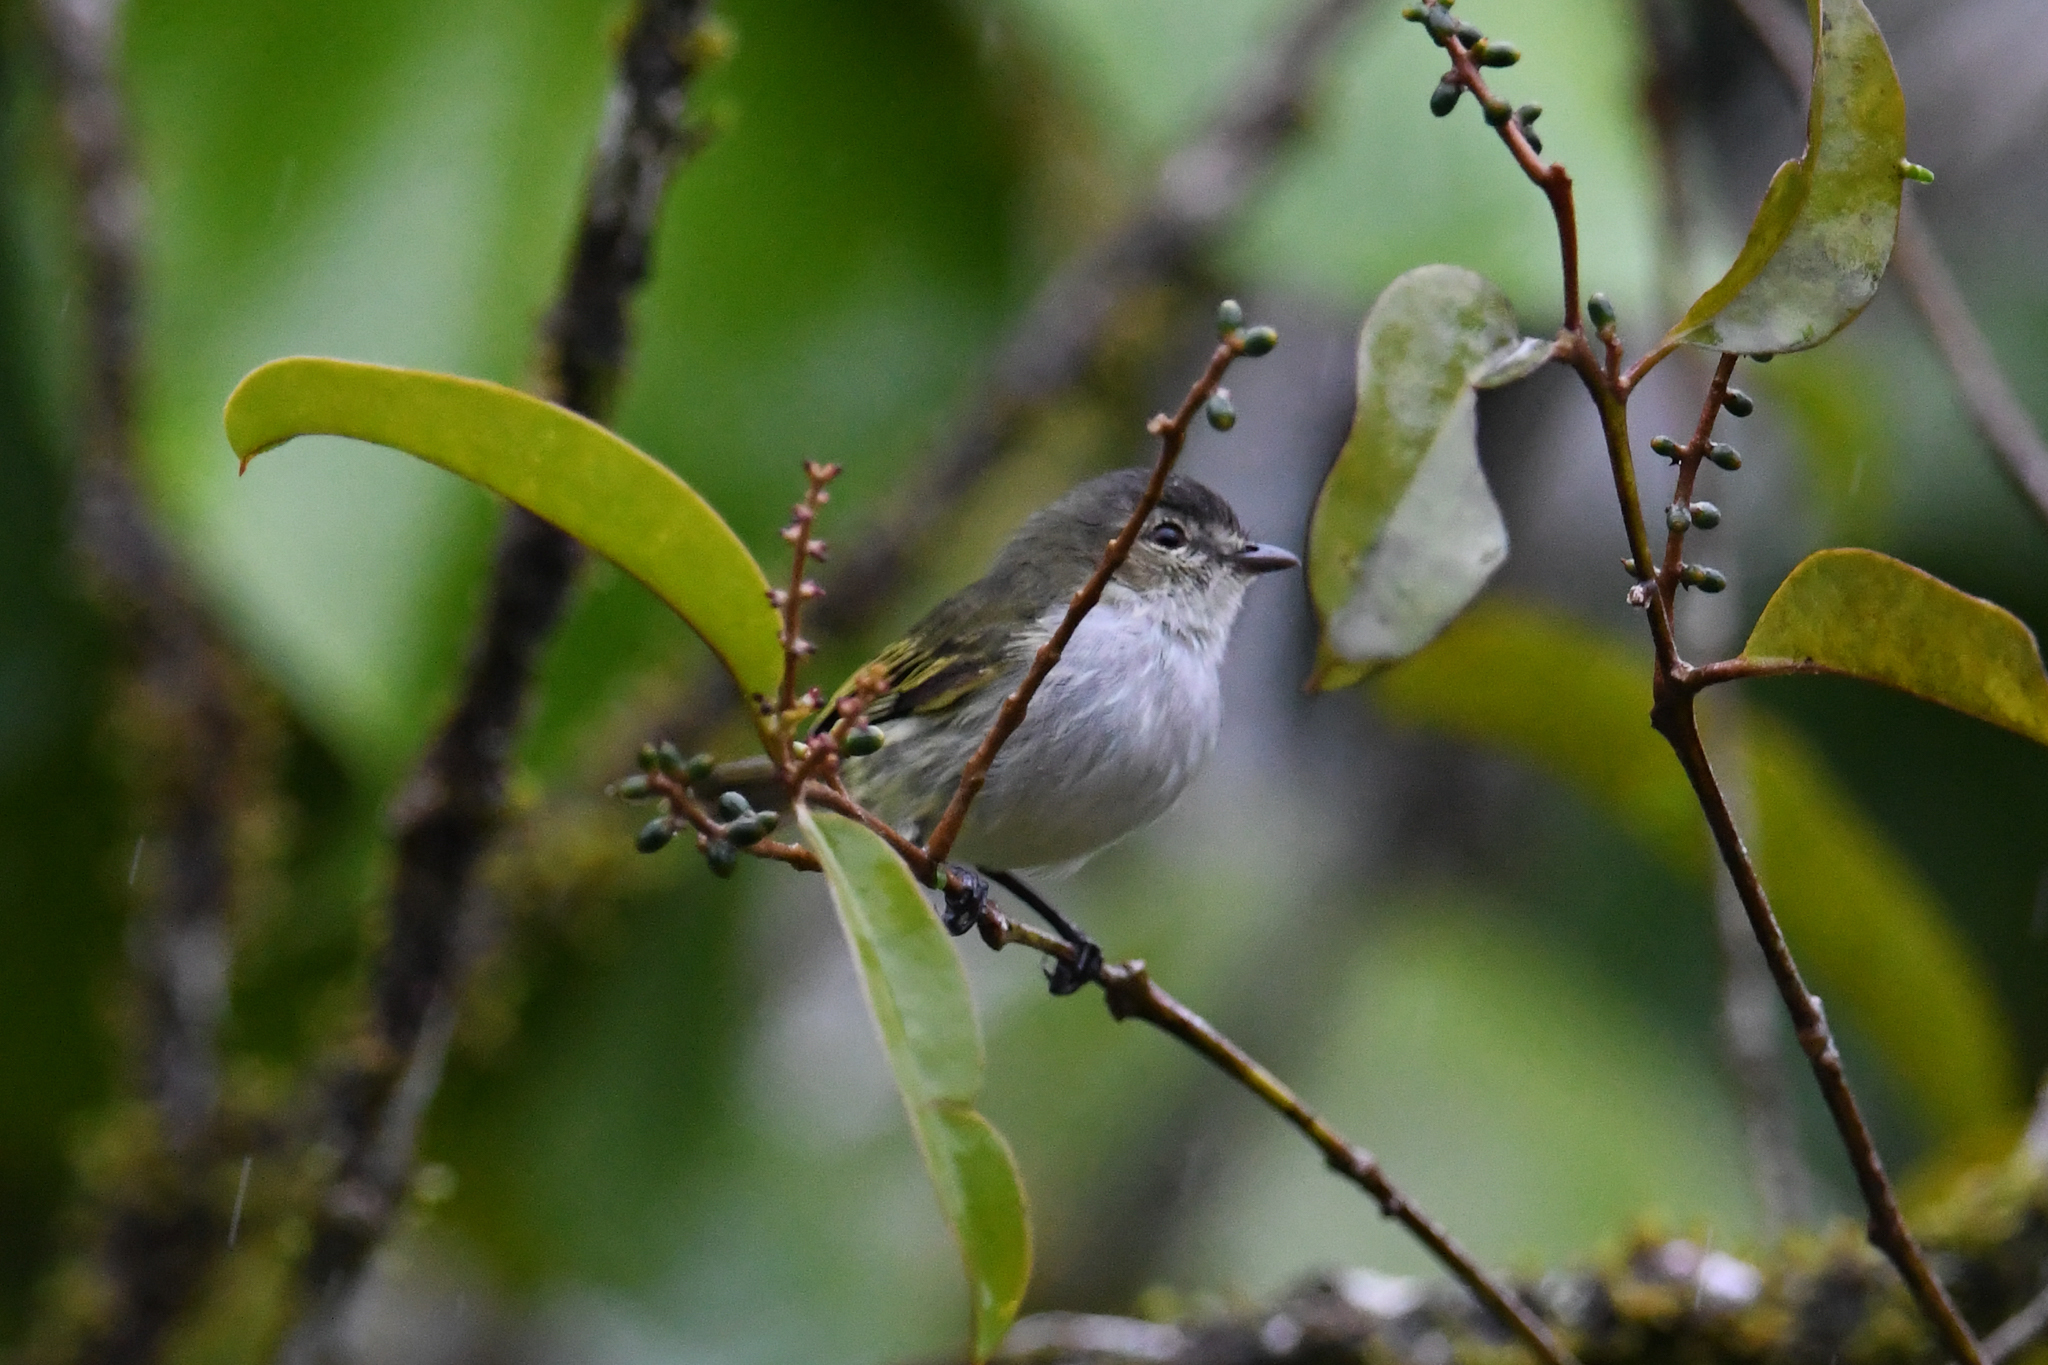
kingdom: Animalia
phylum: Chordata
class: Aves
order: Passeriformes
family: Tyrannidae
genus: Zimmerius
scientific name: Zimmerius vilissimus
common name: Paltry tyrannulet
